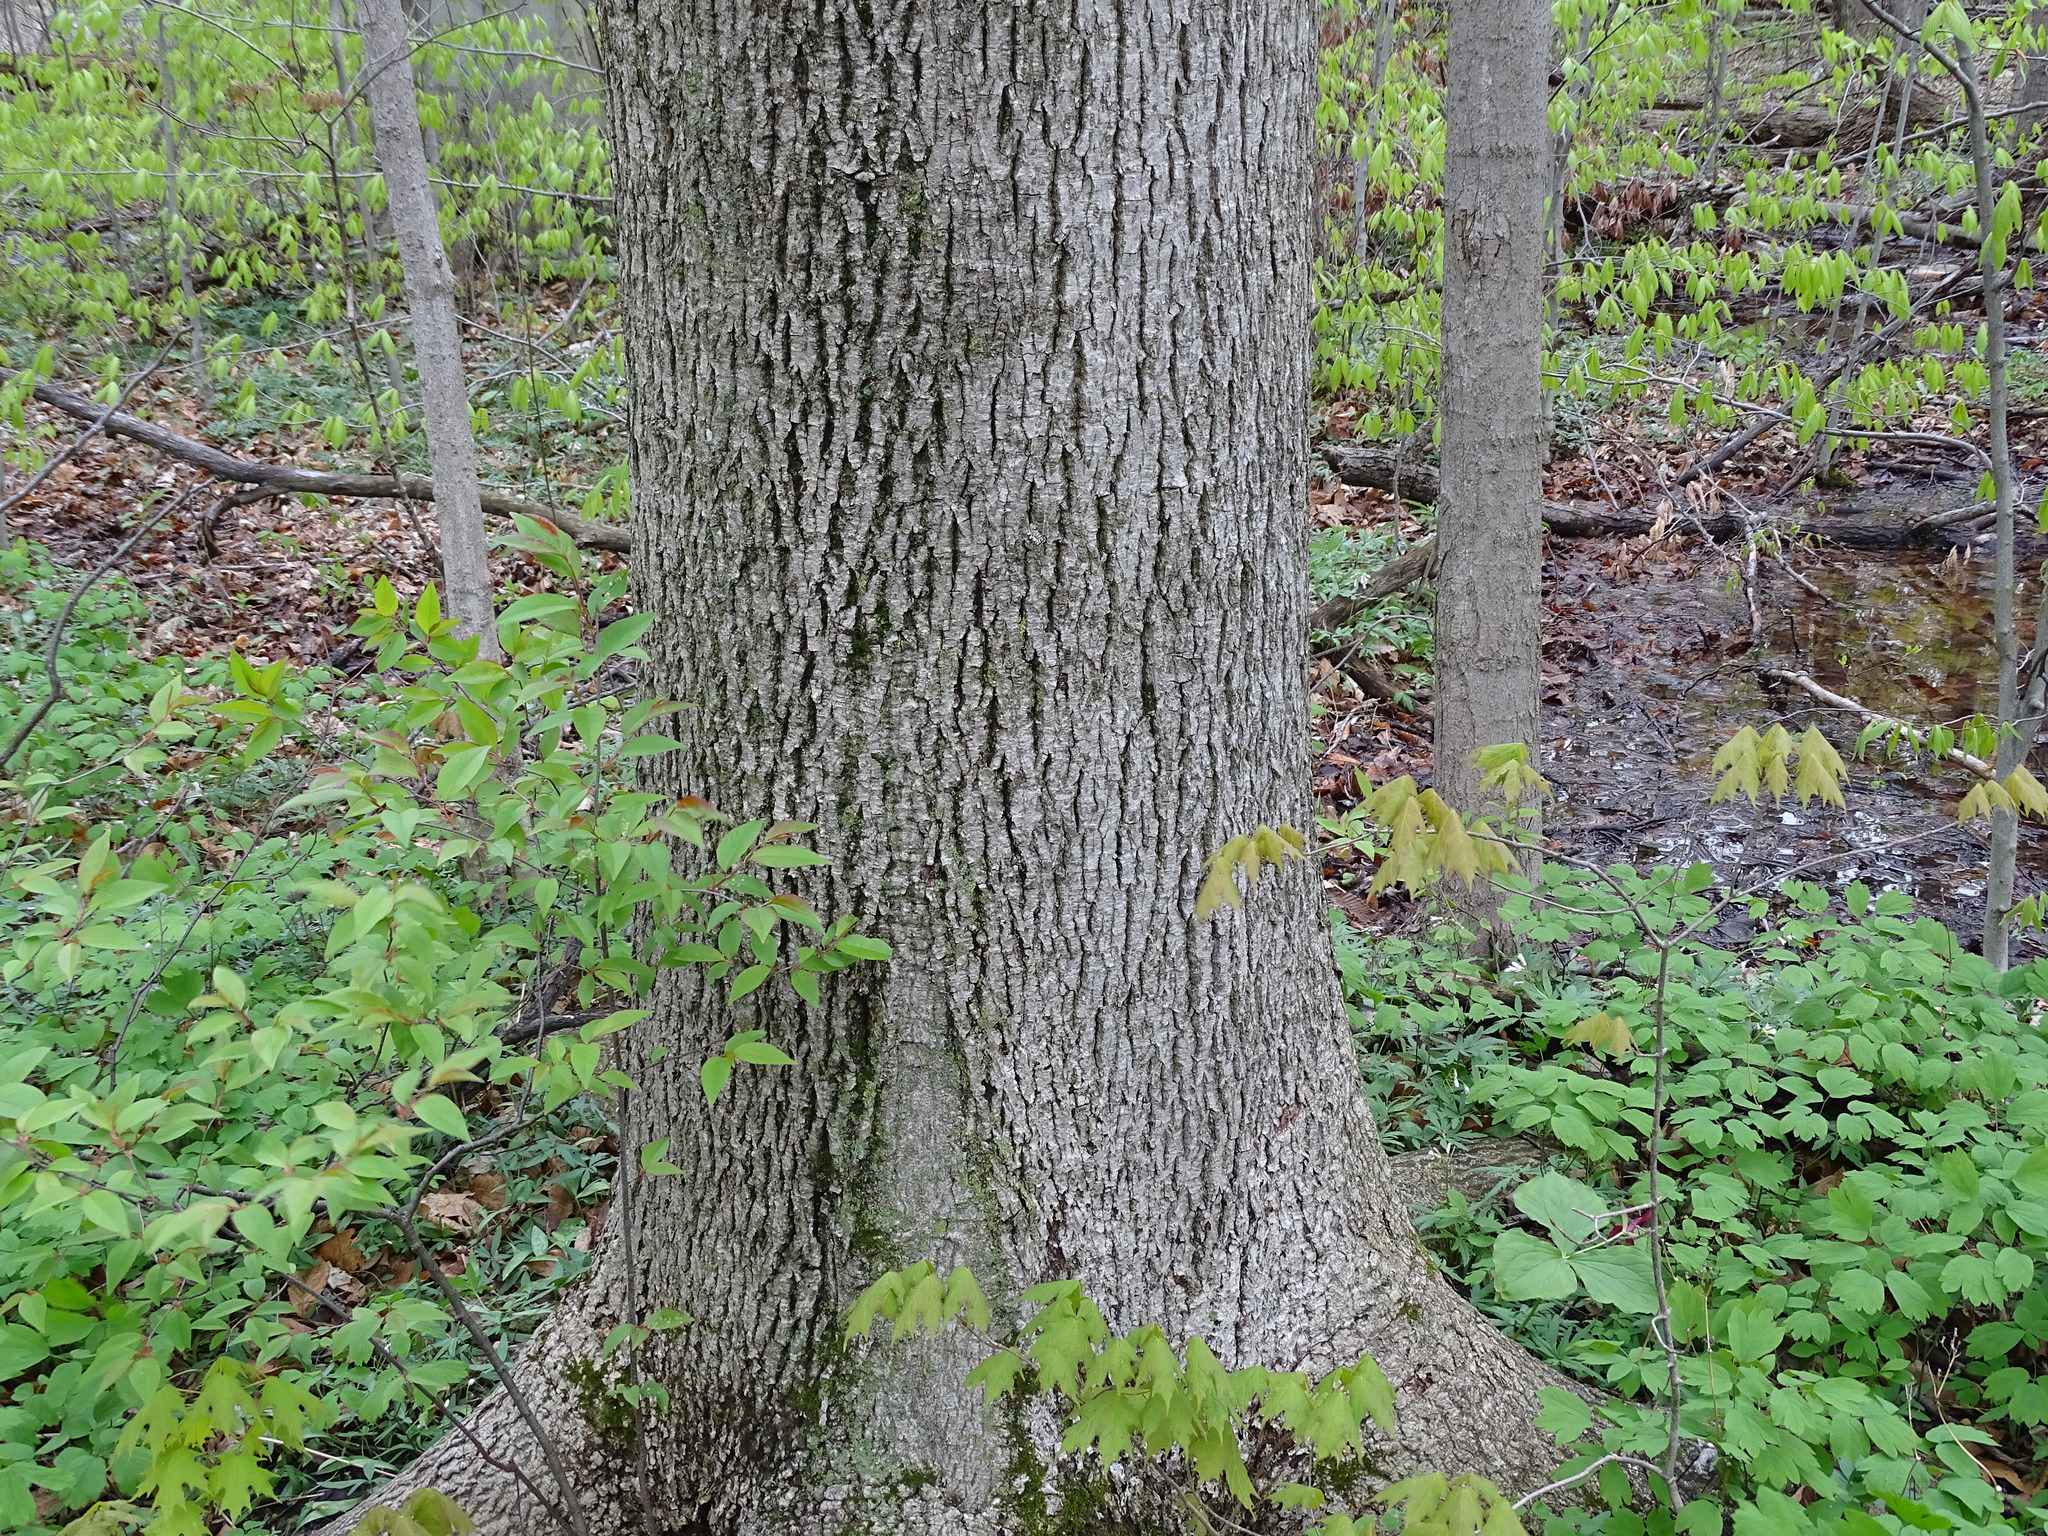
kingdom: Plantae
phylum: Tracheophyta
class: Magnoliopsida
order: Fagales
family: Juglandaceae
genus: Carya
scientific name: Carya cordiformis
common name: Bitternut hickory
